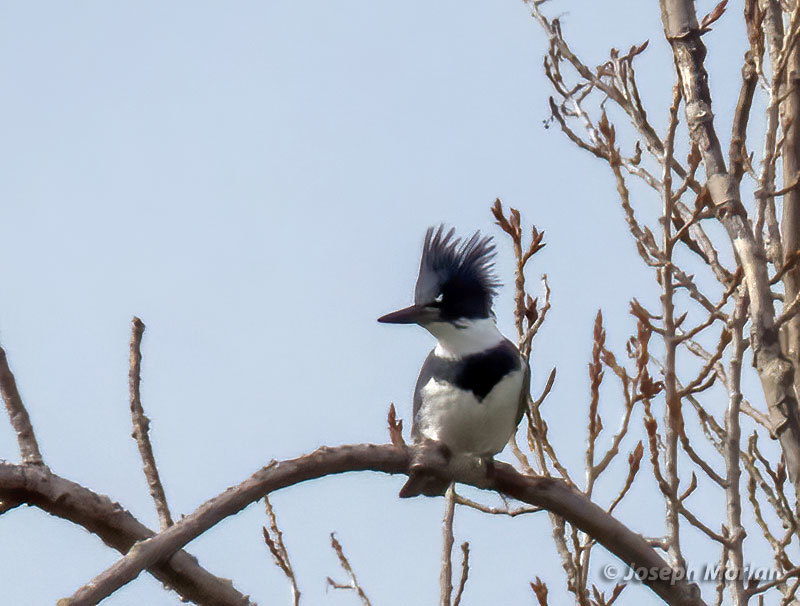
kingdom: Animalia
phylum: Chordata
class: Aves
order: Coraciiformes
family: Alcedinidae
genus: Megaceryle
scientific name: Megaceryle alcyon
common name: Belted kingfisher
